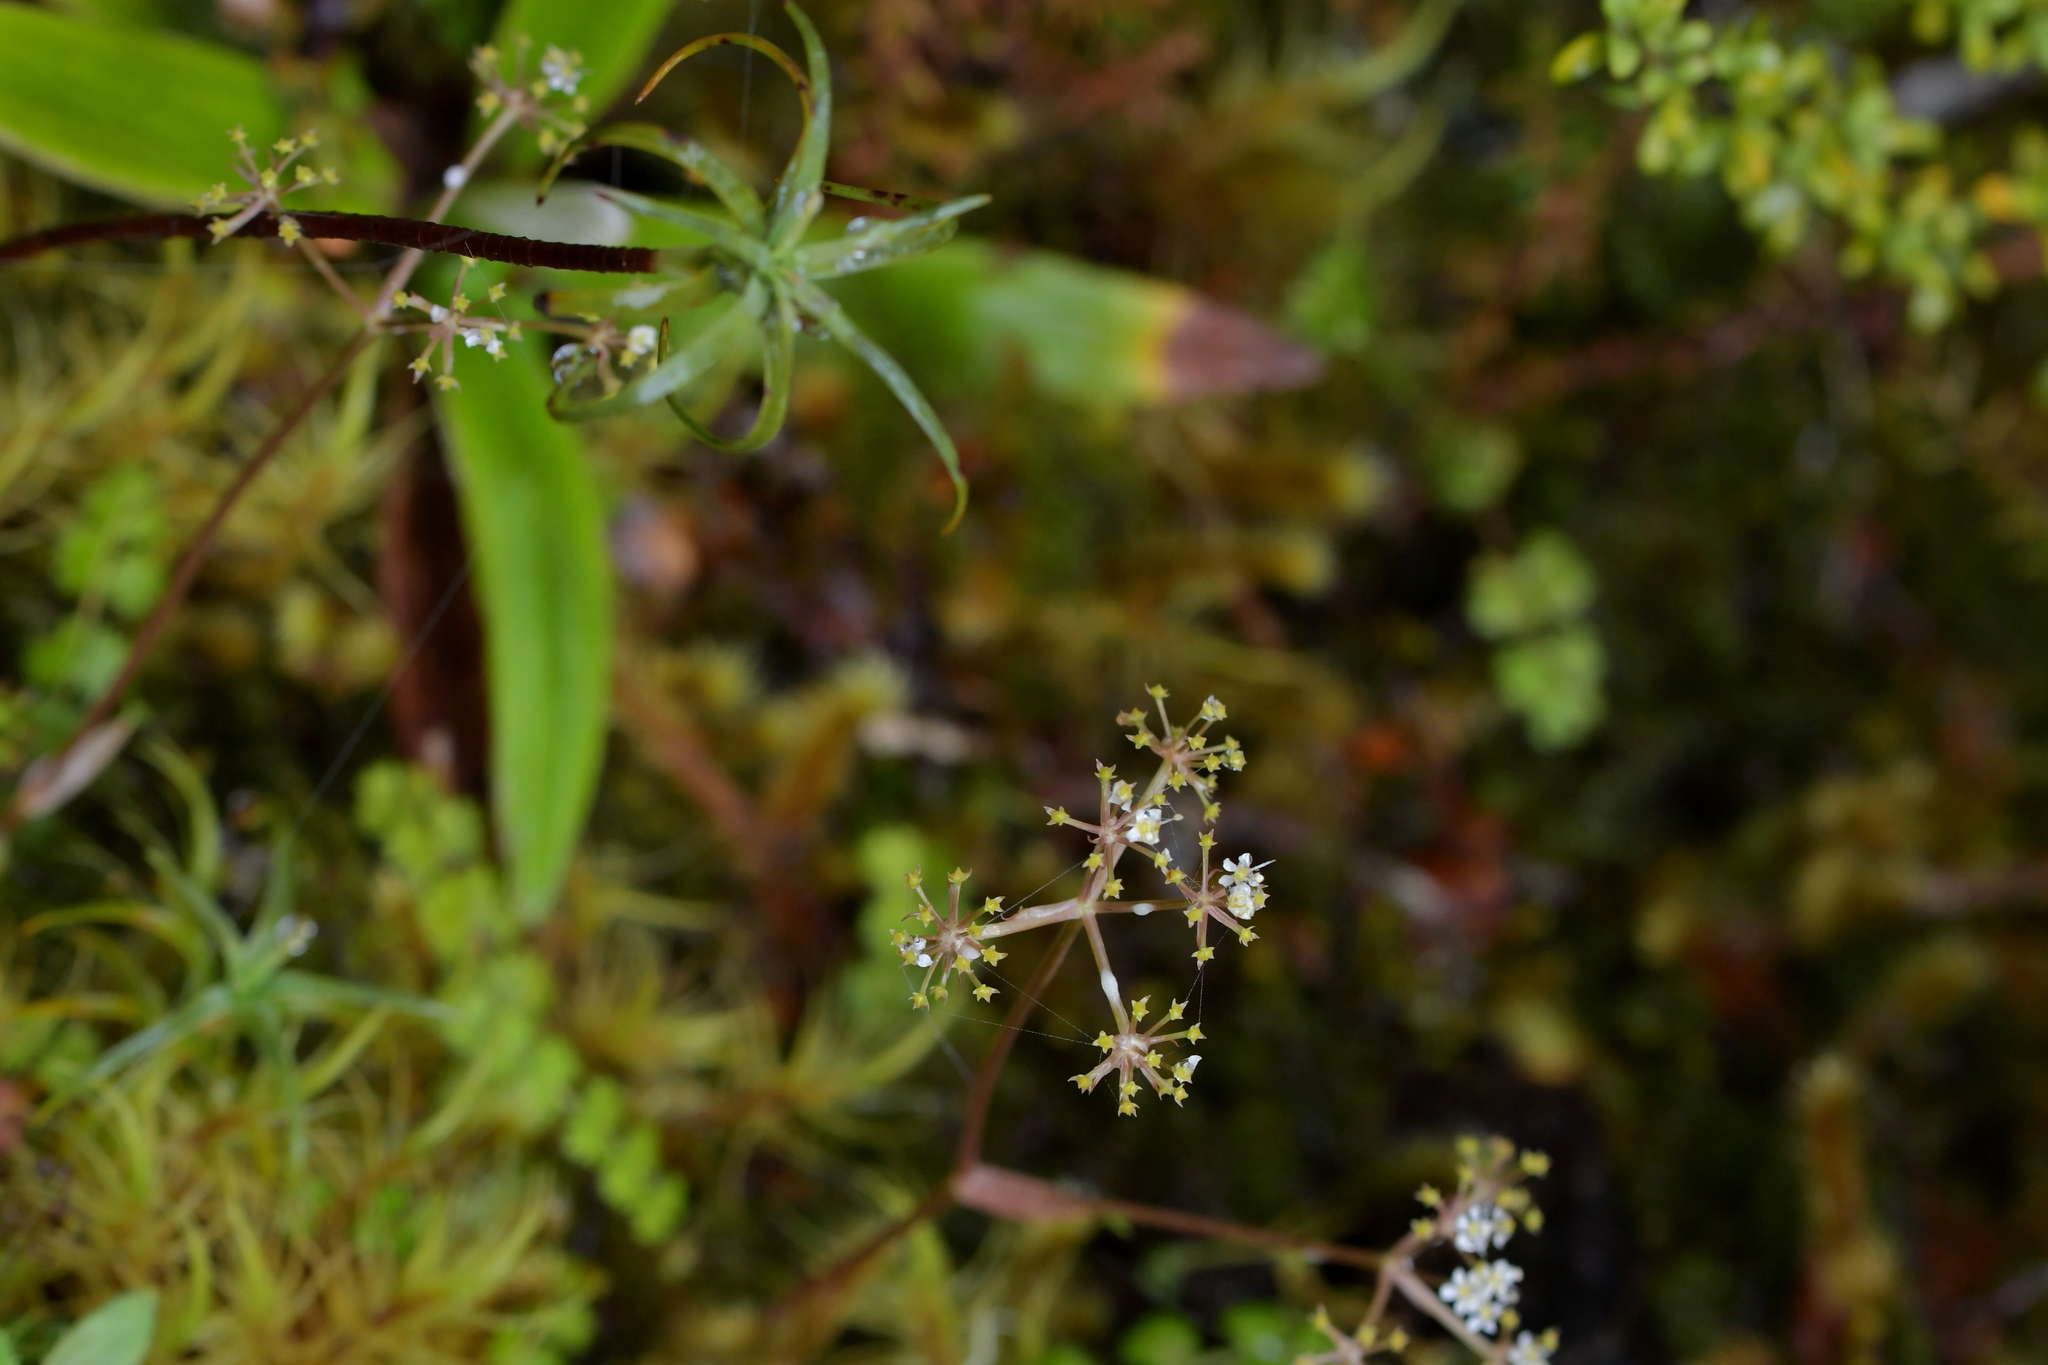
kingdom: Plantae
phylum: Tracheophyta
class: Magnoliopsida
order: Apiales
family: Apiaceae
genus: Anisotome
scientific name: Anisotome aromatica
